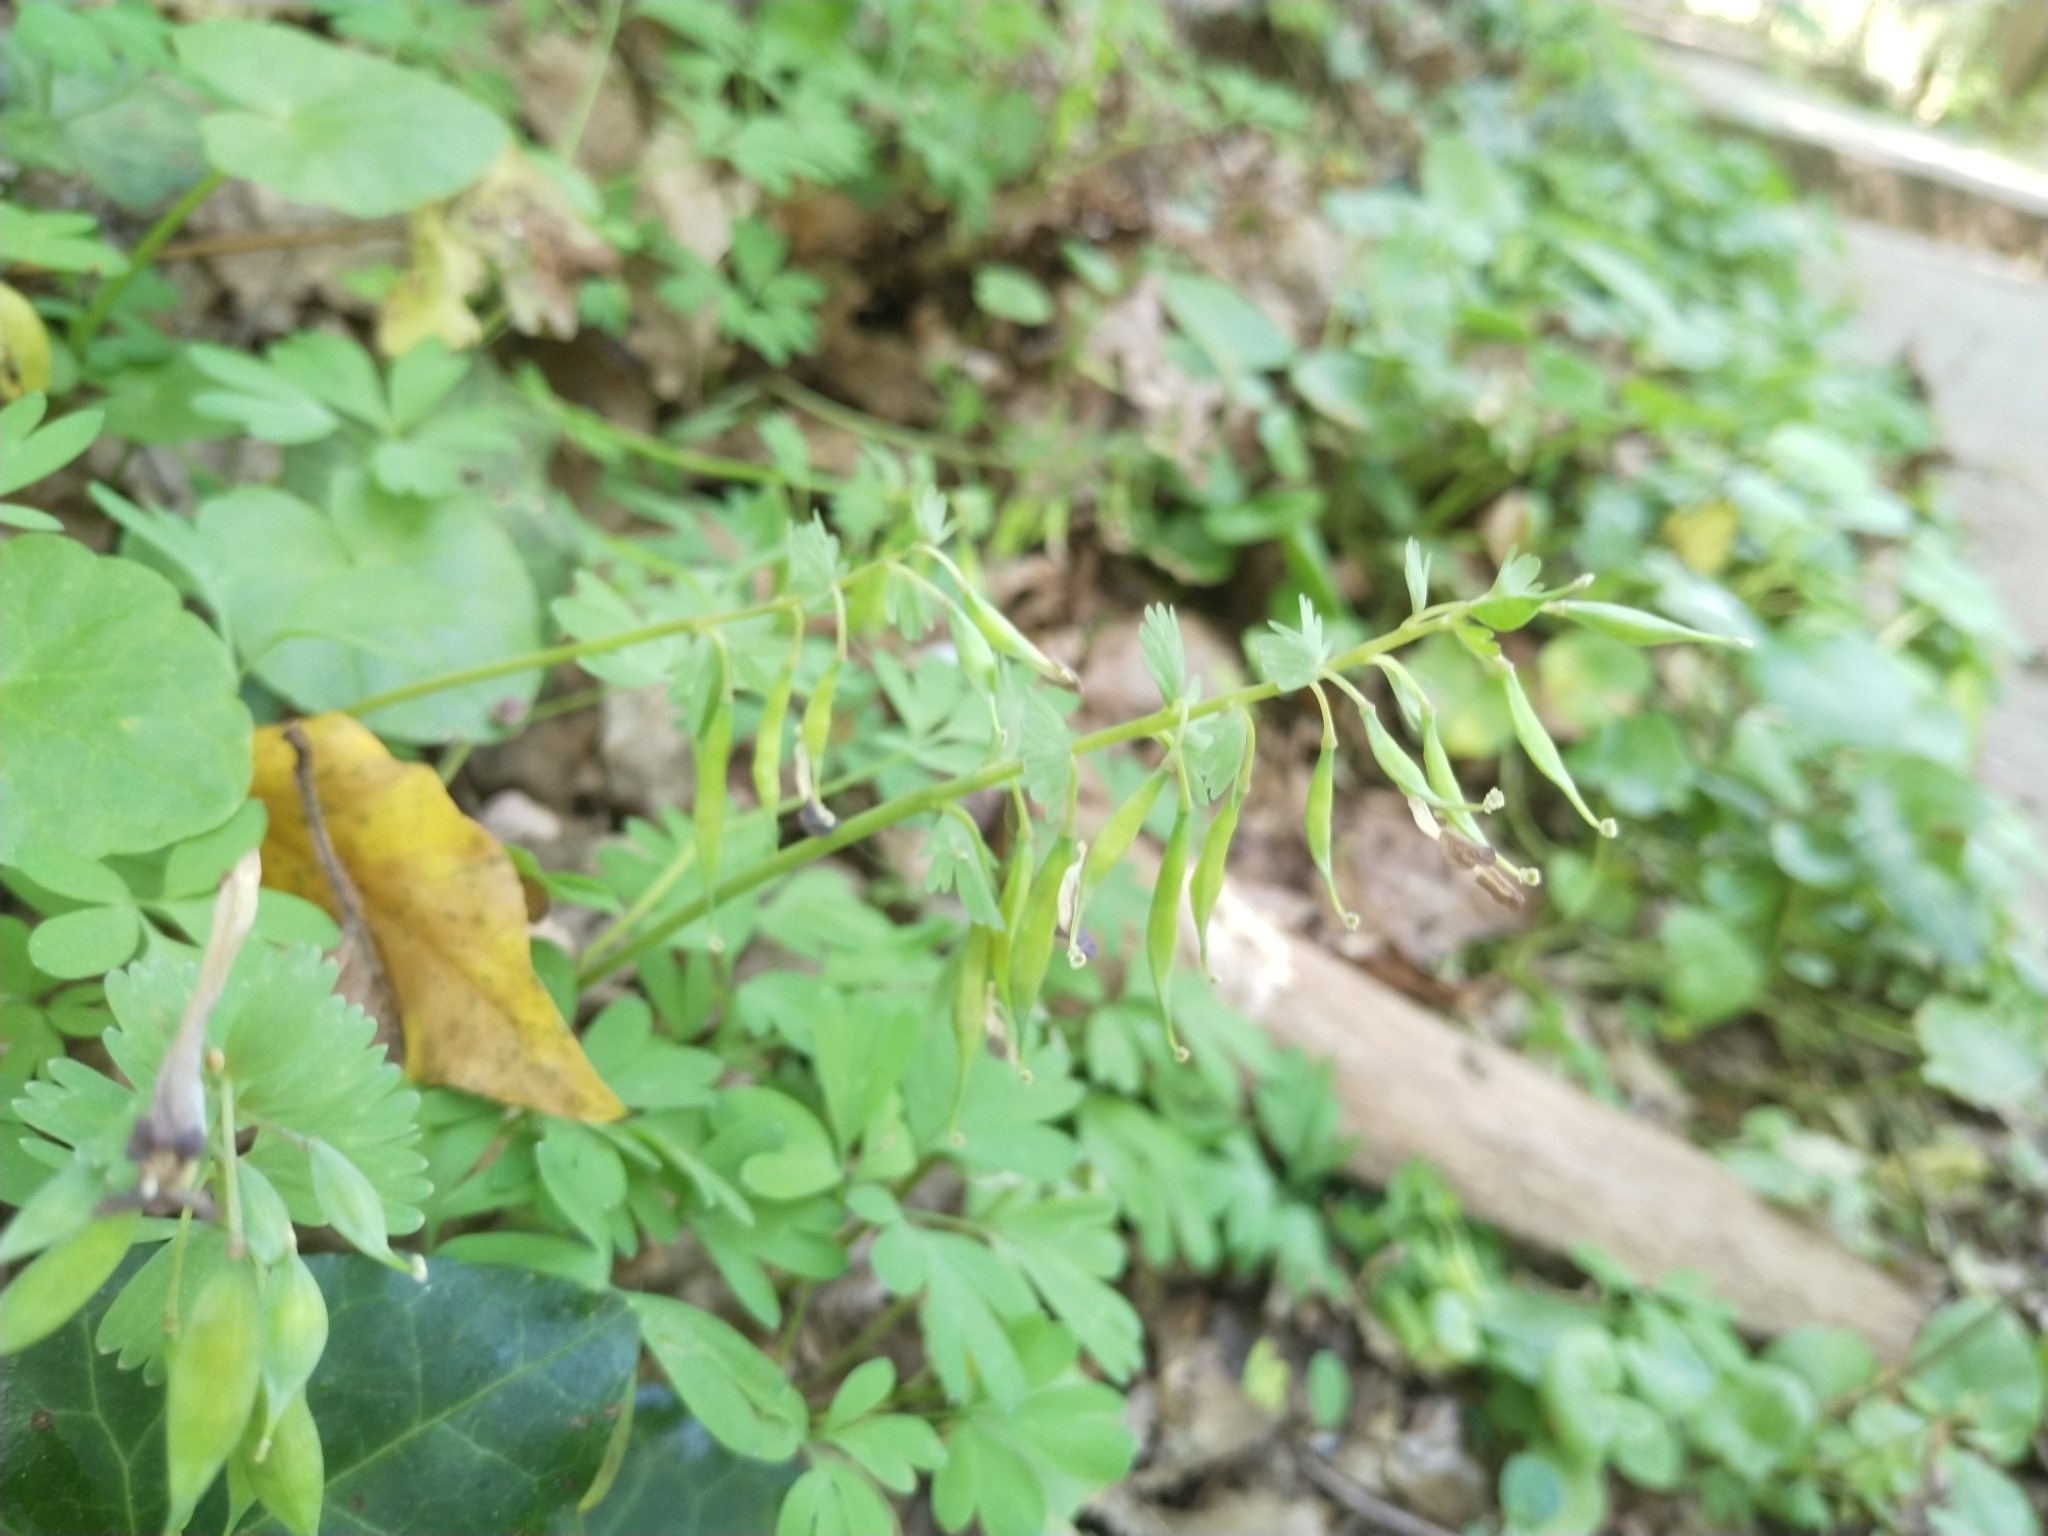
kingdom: Plantae
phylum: Tracheophyta
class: Magnoliopsida
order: Ranunculales
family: Papaveraceae
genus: Corydalis
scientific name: Corydalis solida
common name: Bird-in-a-bush
